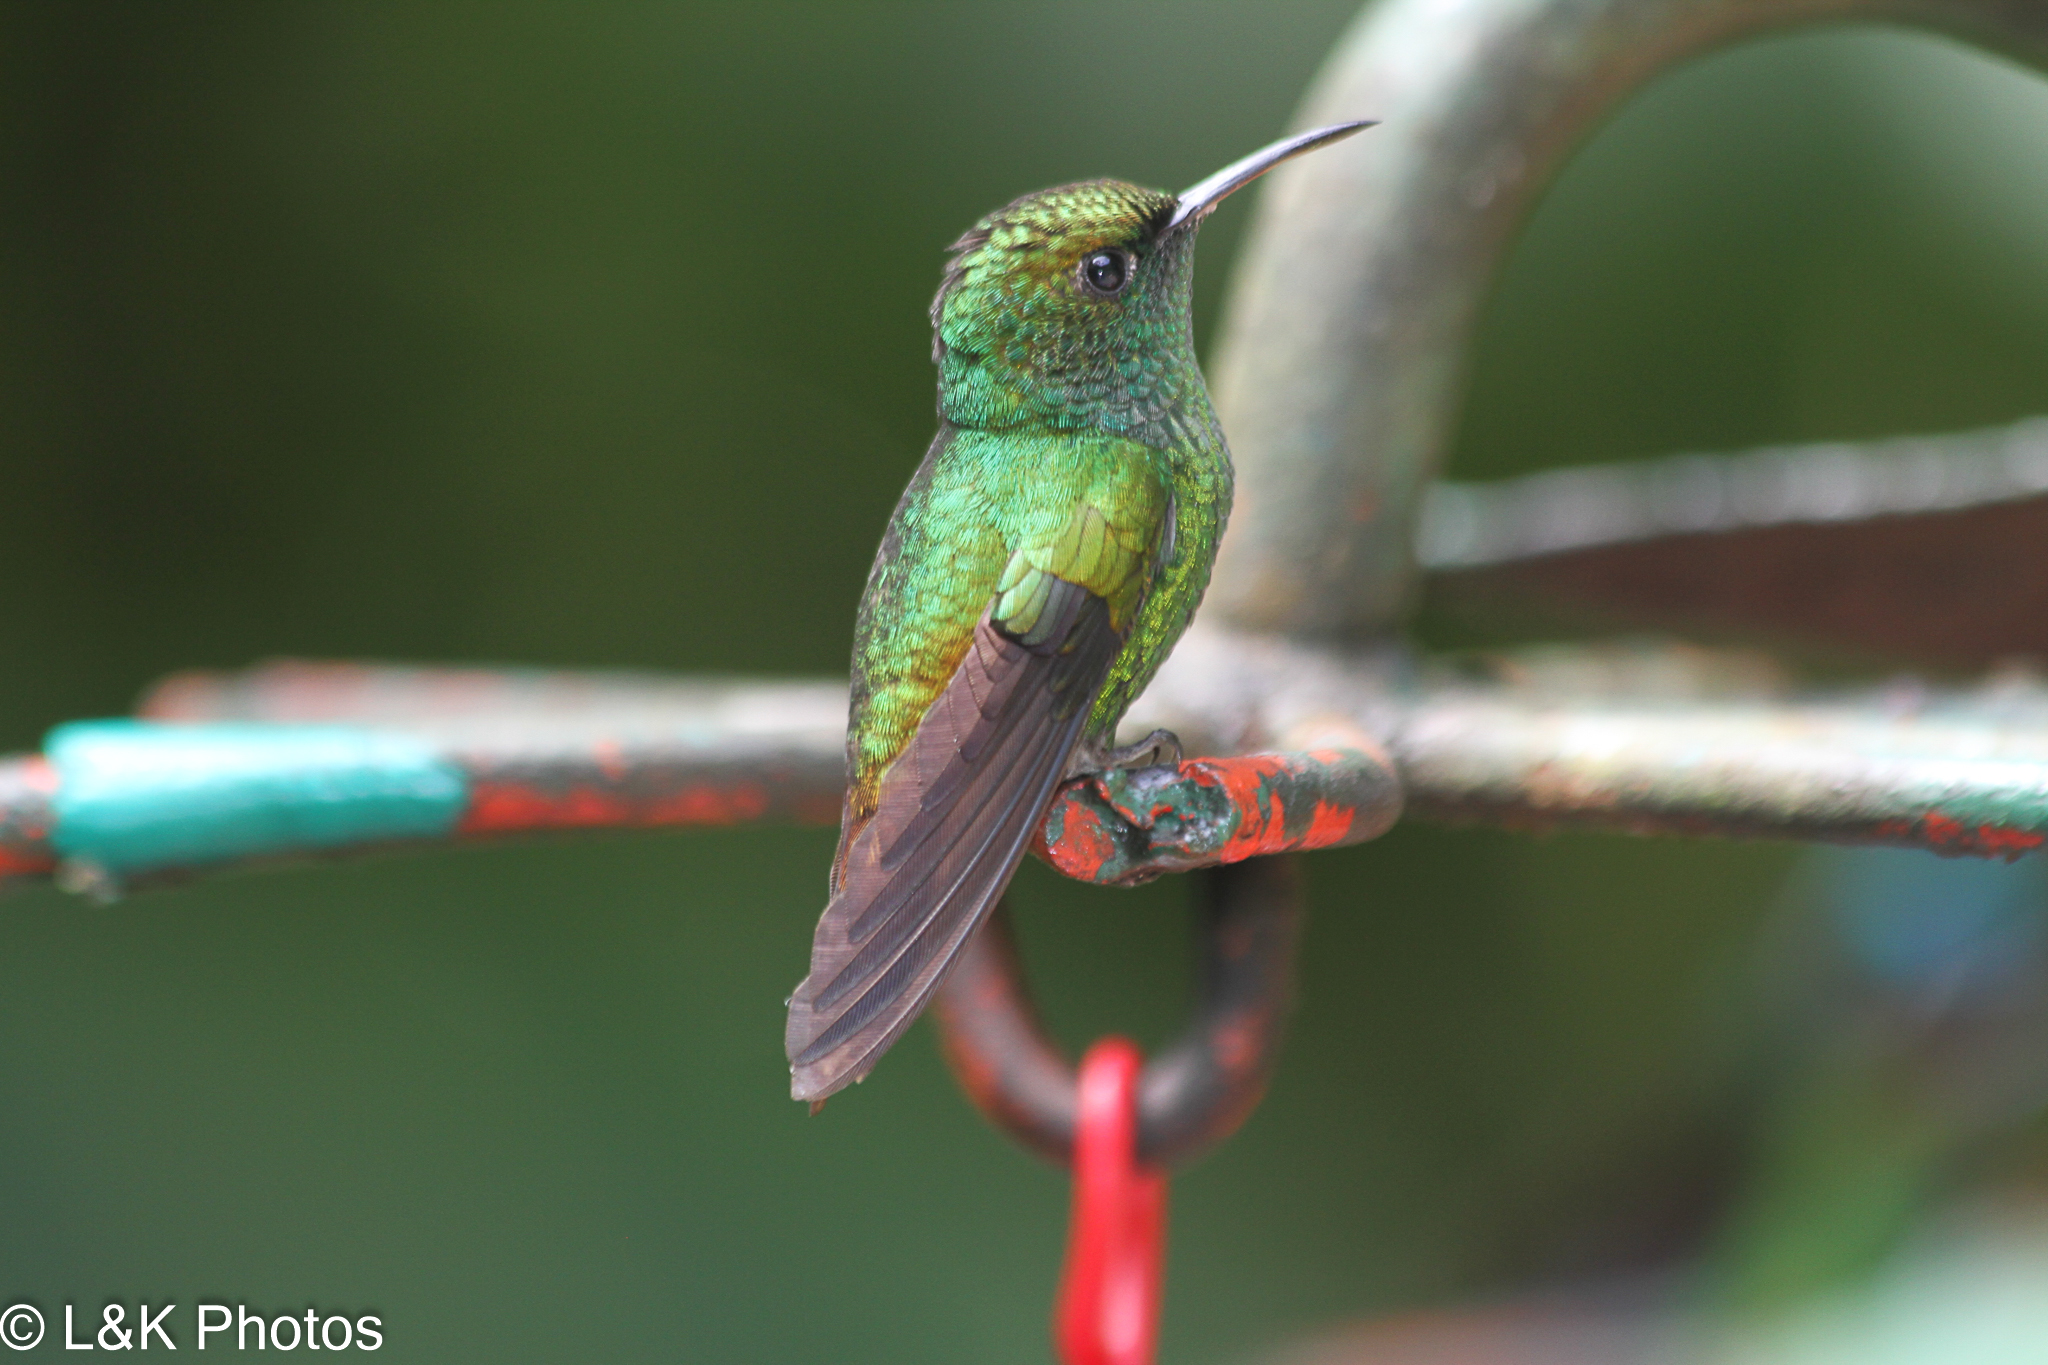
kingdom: Animalia
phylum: Chordata
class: Aves
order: Apodiformes
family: Trochilidae
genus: Microchera
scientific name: Microchera cupreiceps
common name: Coppery-headed emerald
